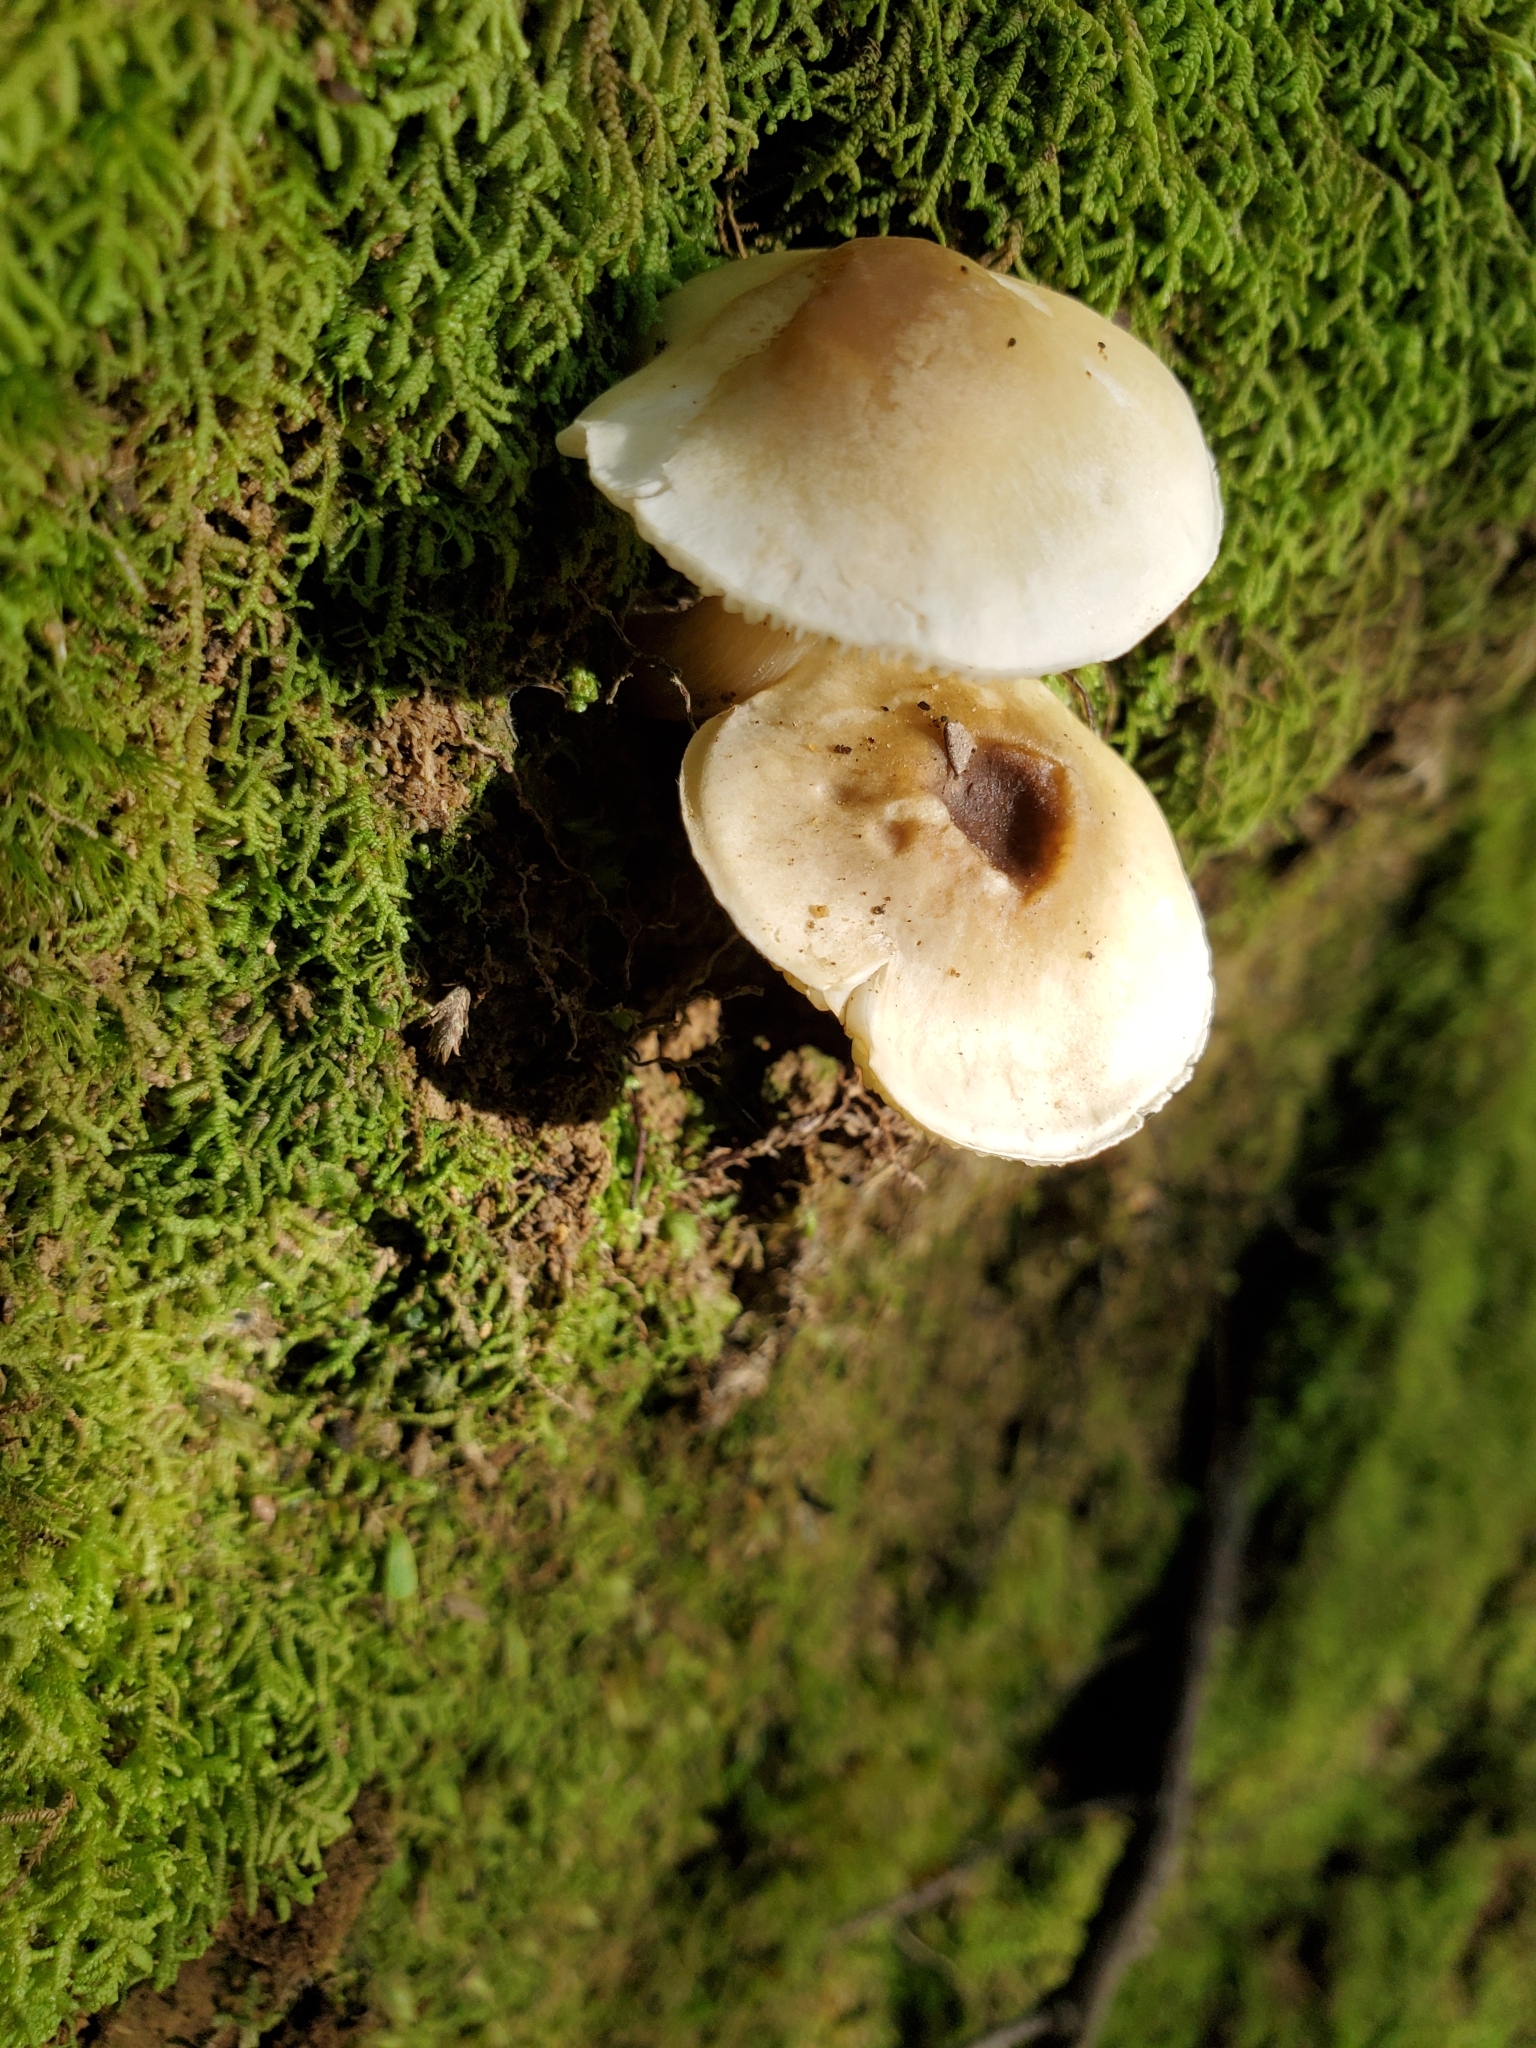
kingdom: Fungi
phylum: Basidiomycota
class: Agaricomycetes
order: Agaricales
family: Tricholomataceae
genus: Tricholoma
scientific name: Tricholoma viridiolivaceum
